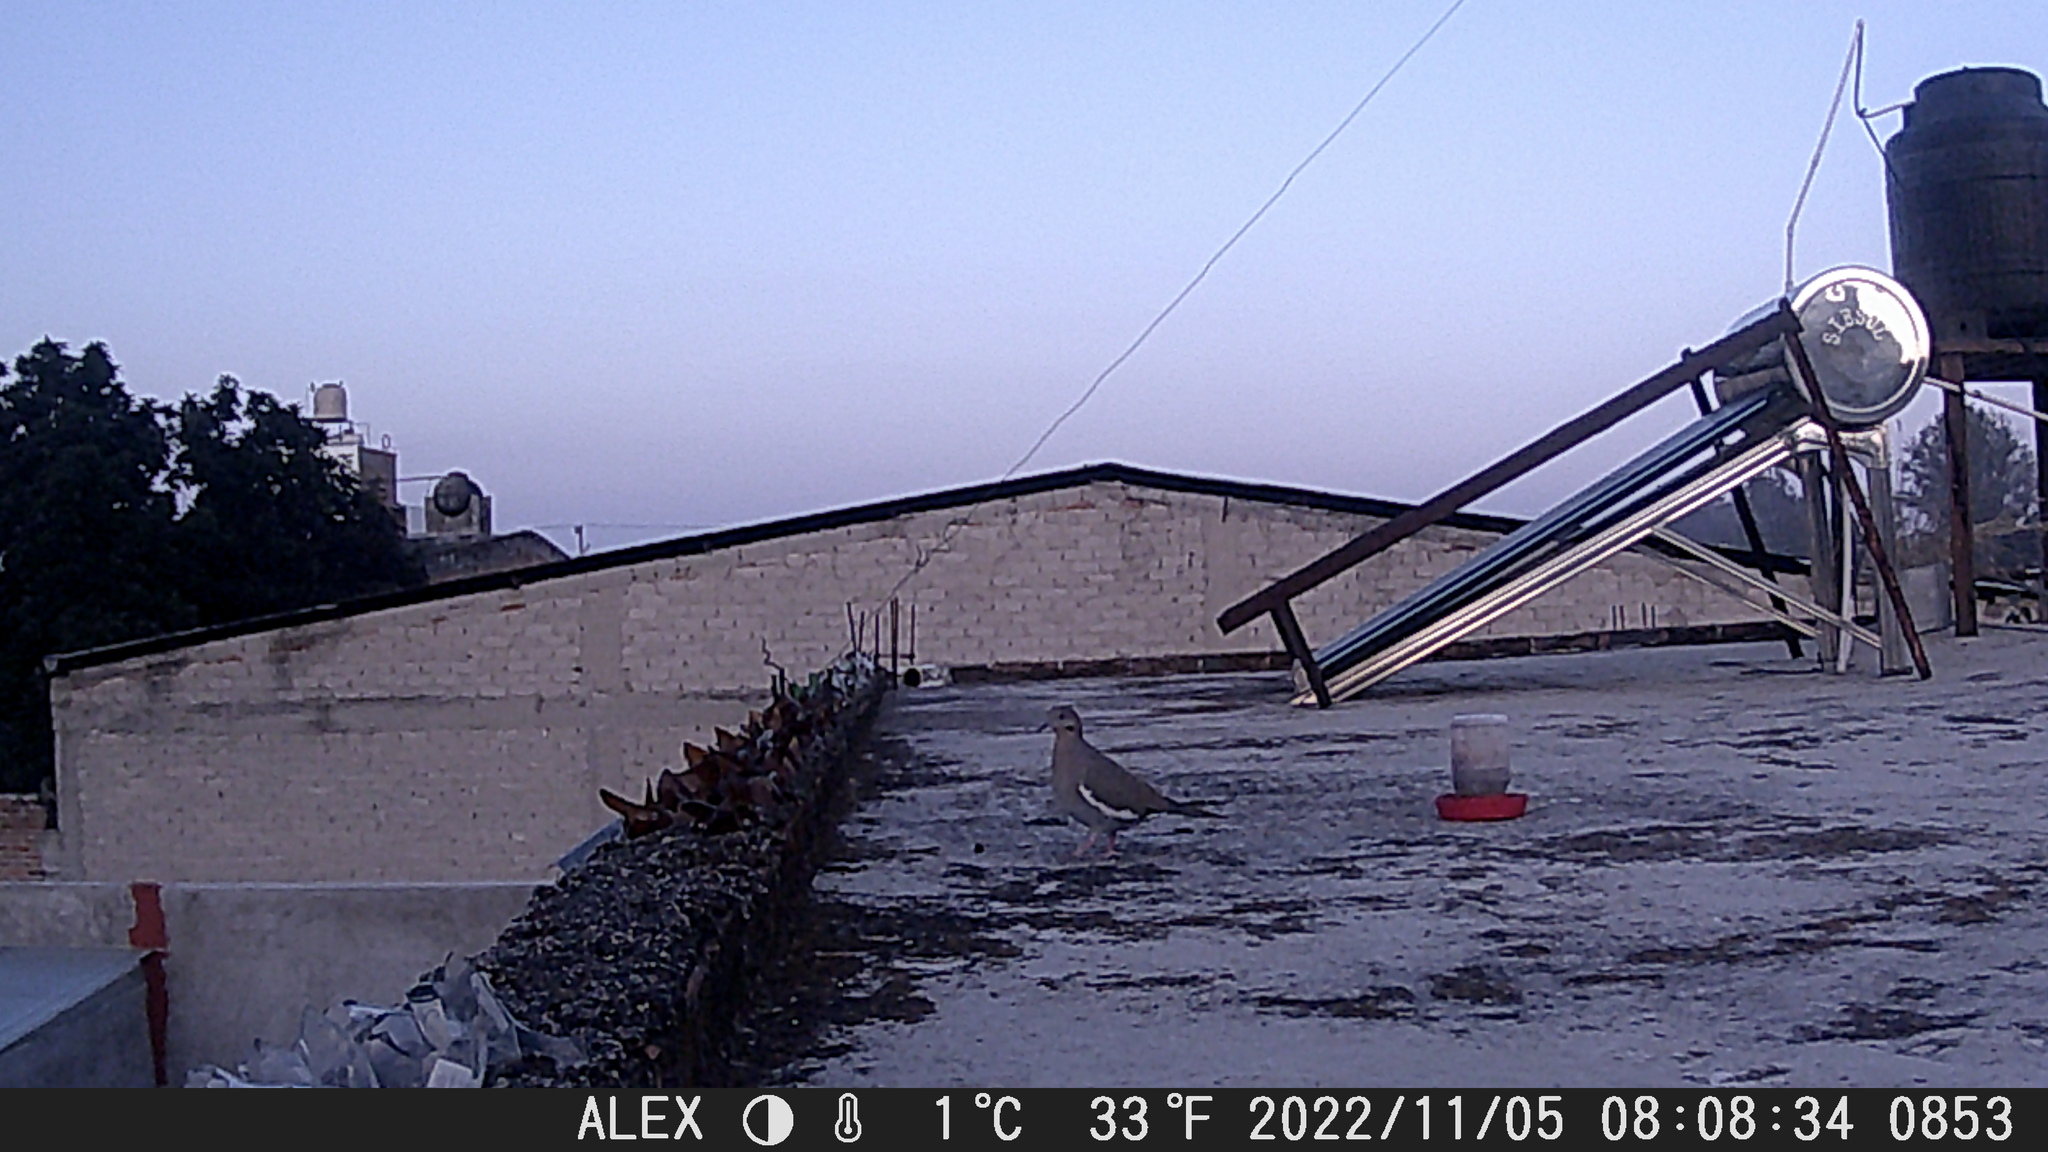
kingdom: Animalia
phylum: Chordata
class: Aves
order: Columbiformes
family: Columbidae
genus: Zenaida
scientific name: Zenaida asiatica
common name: White-winged dove
